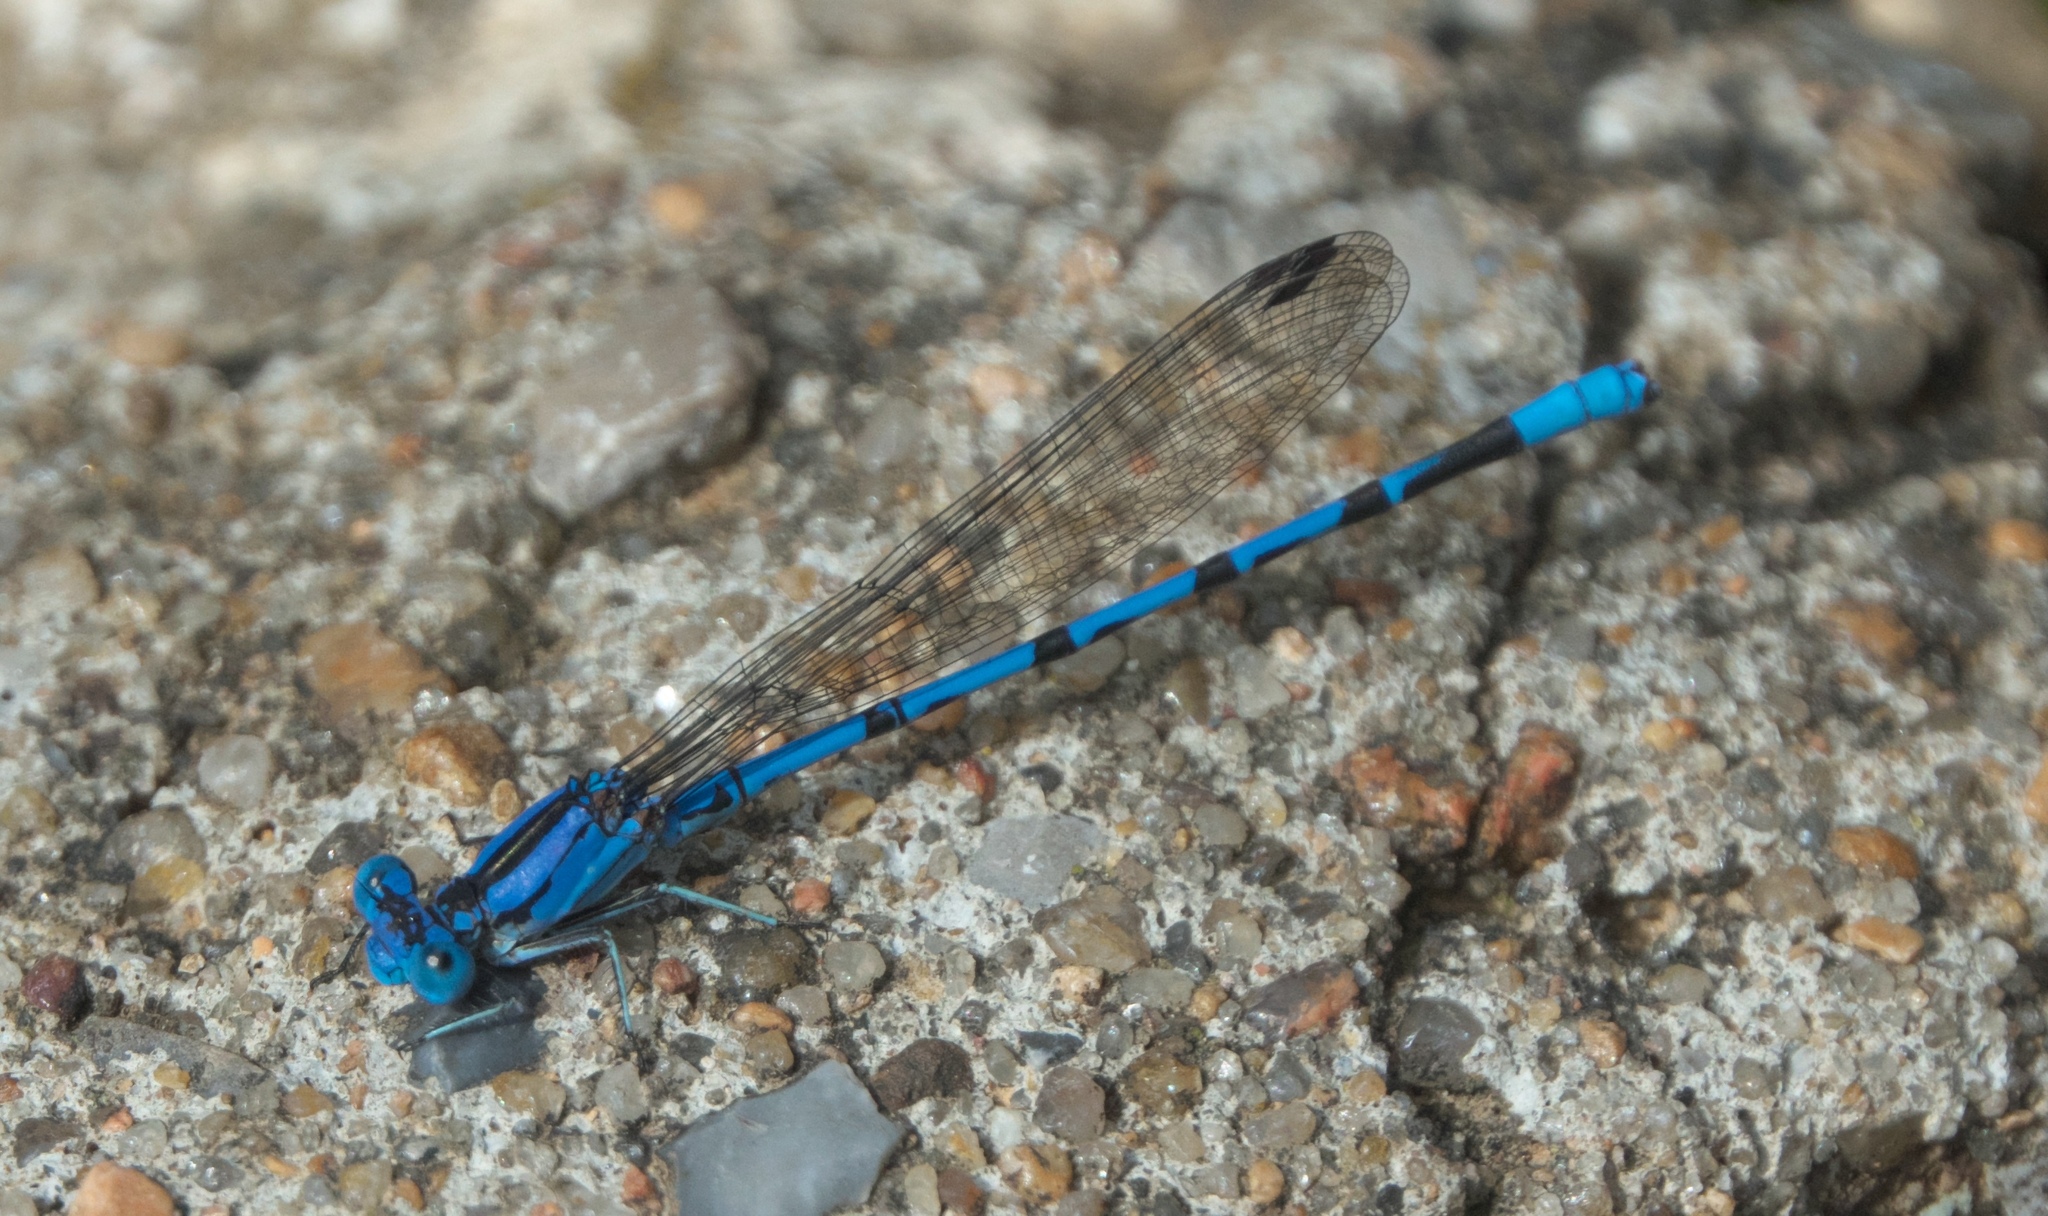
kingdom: Animalia
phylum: Arthropoda
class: Insecta
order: Odonata
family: Coenagrionidae
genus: Argia
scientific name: Argia funebris
